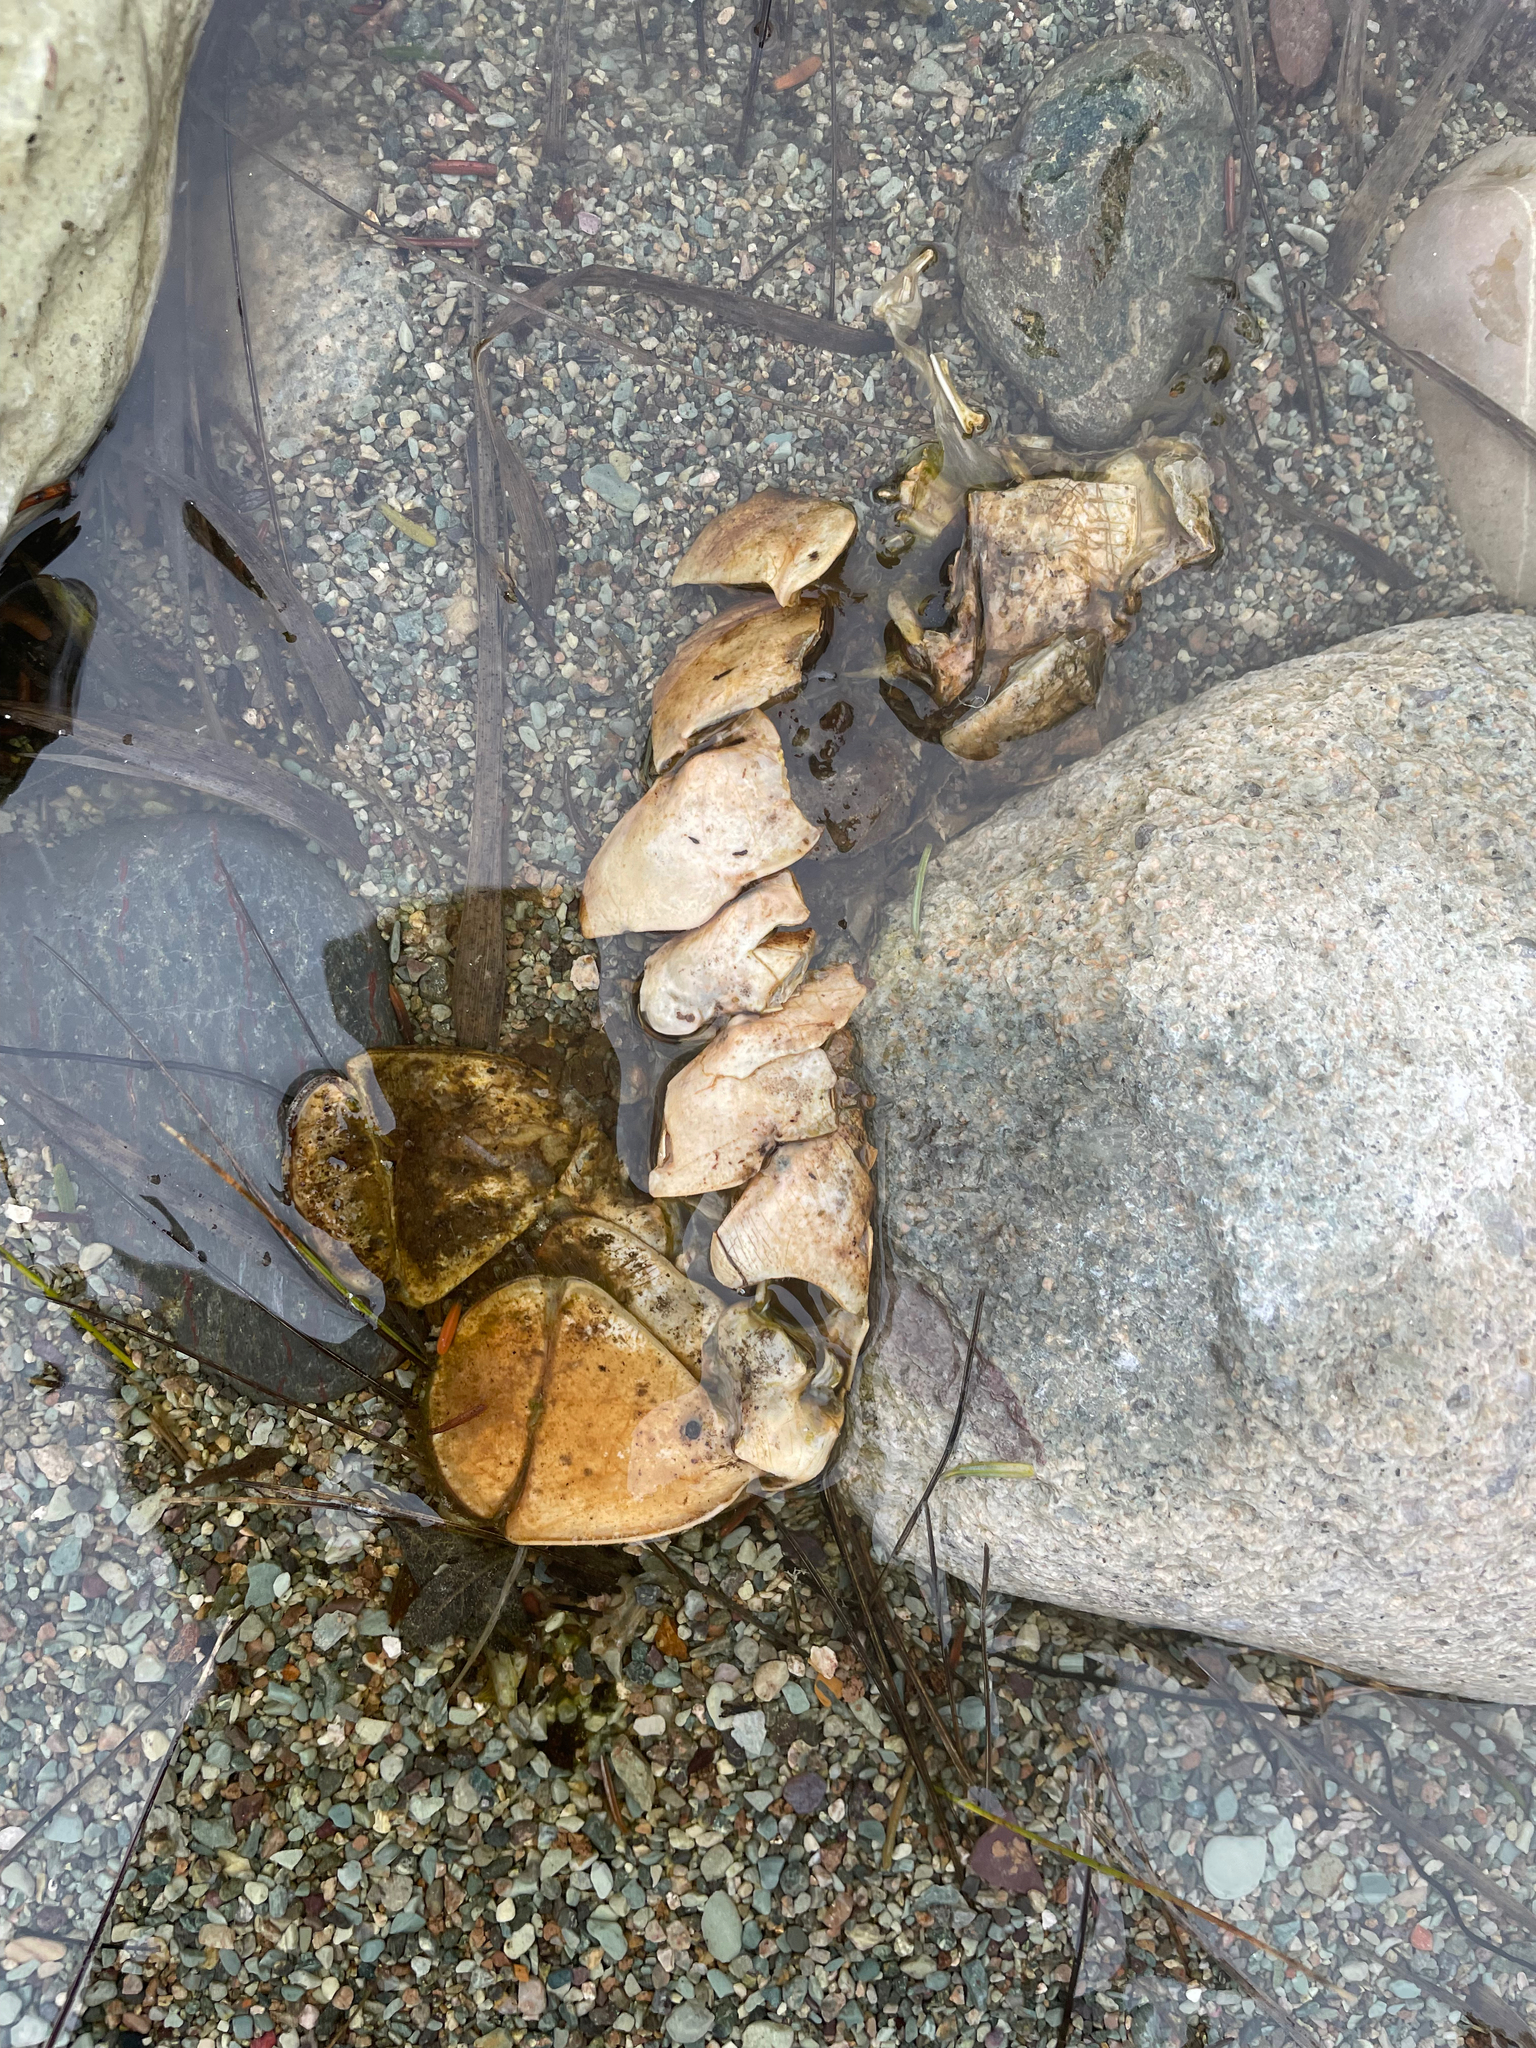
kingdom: Animalia
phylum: Arthropoda
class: Malacostraca
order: Decapoda
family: Nephropidae
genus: Homarus
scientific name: Homarus americanus
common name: American lobster
